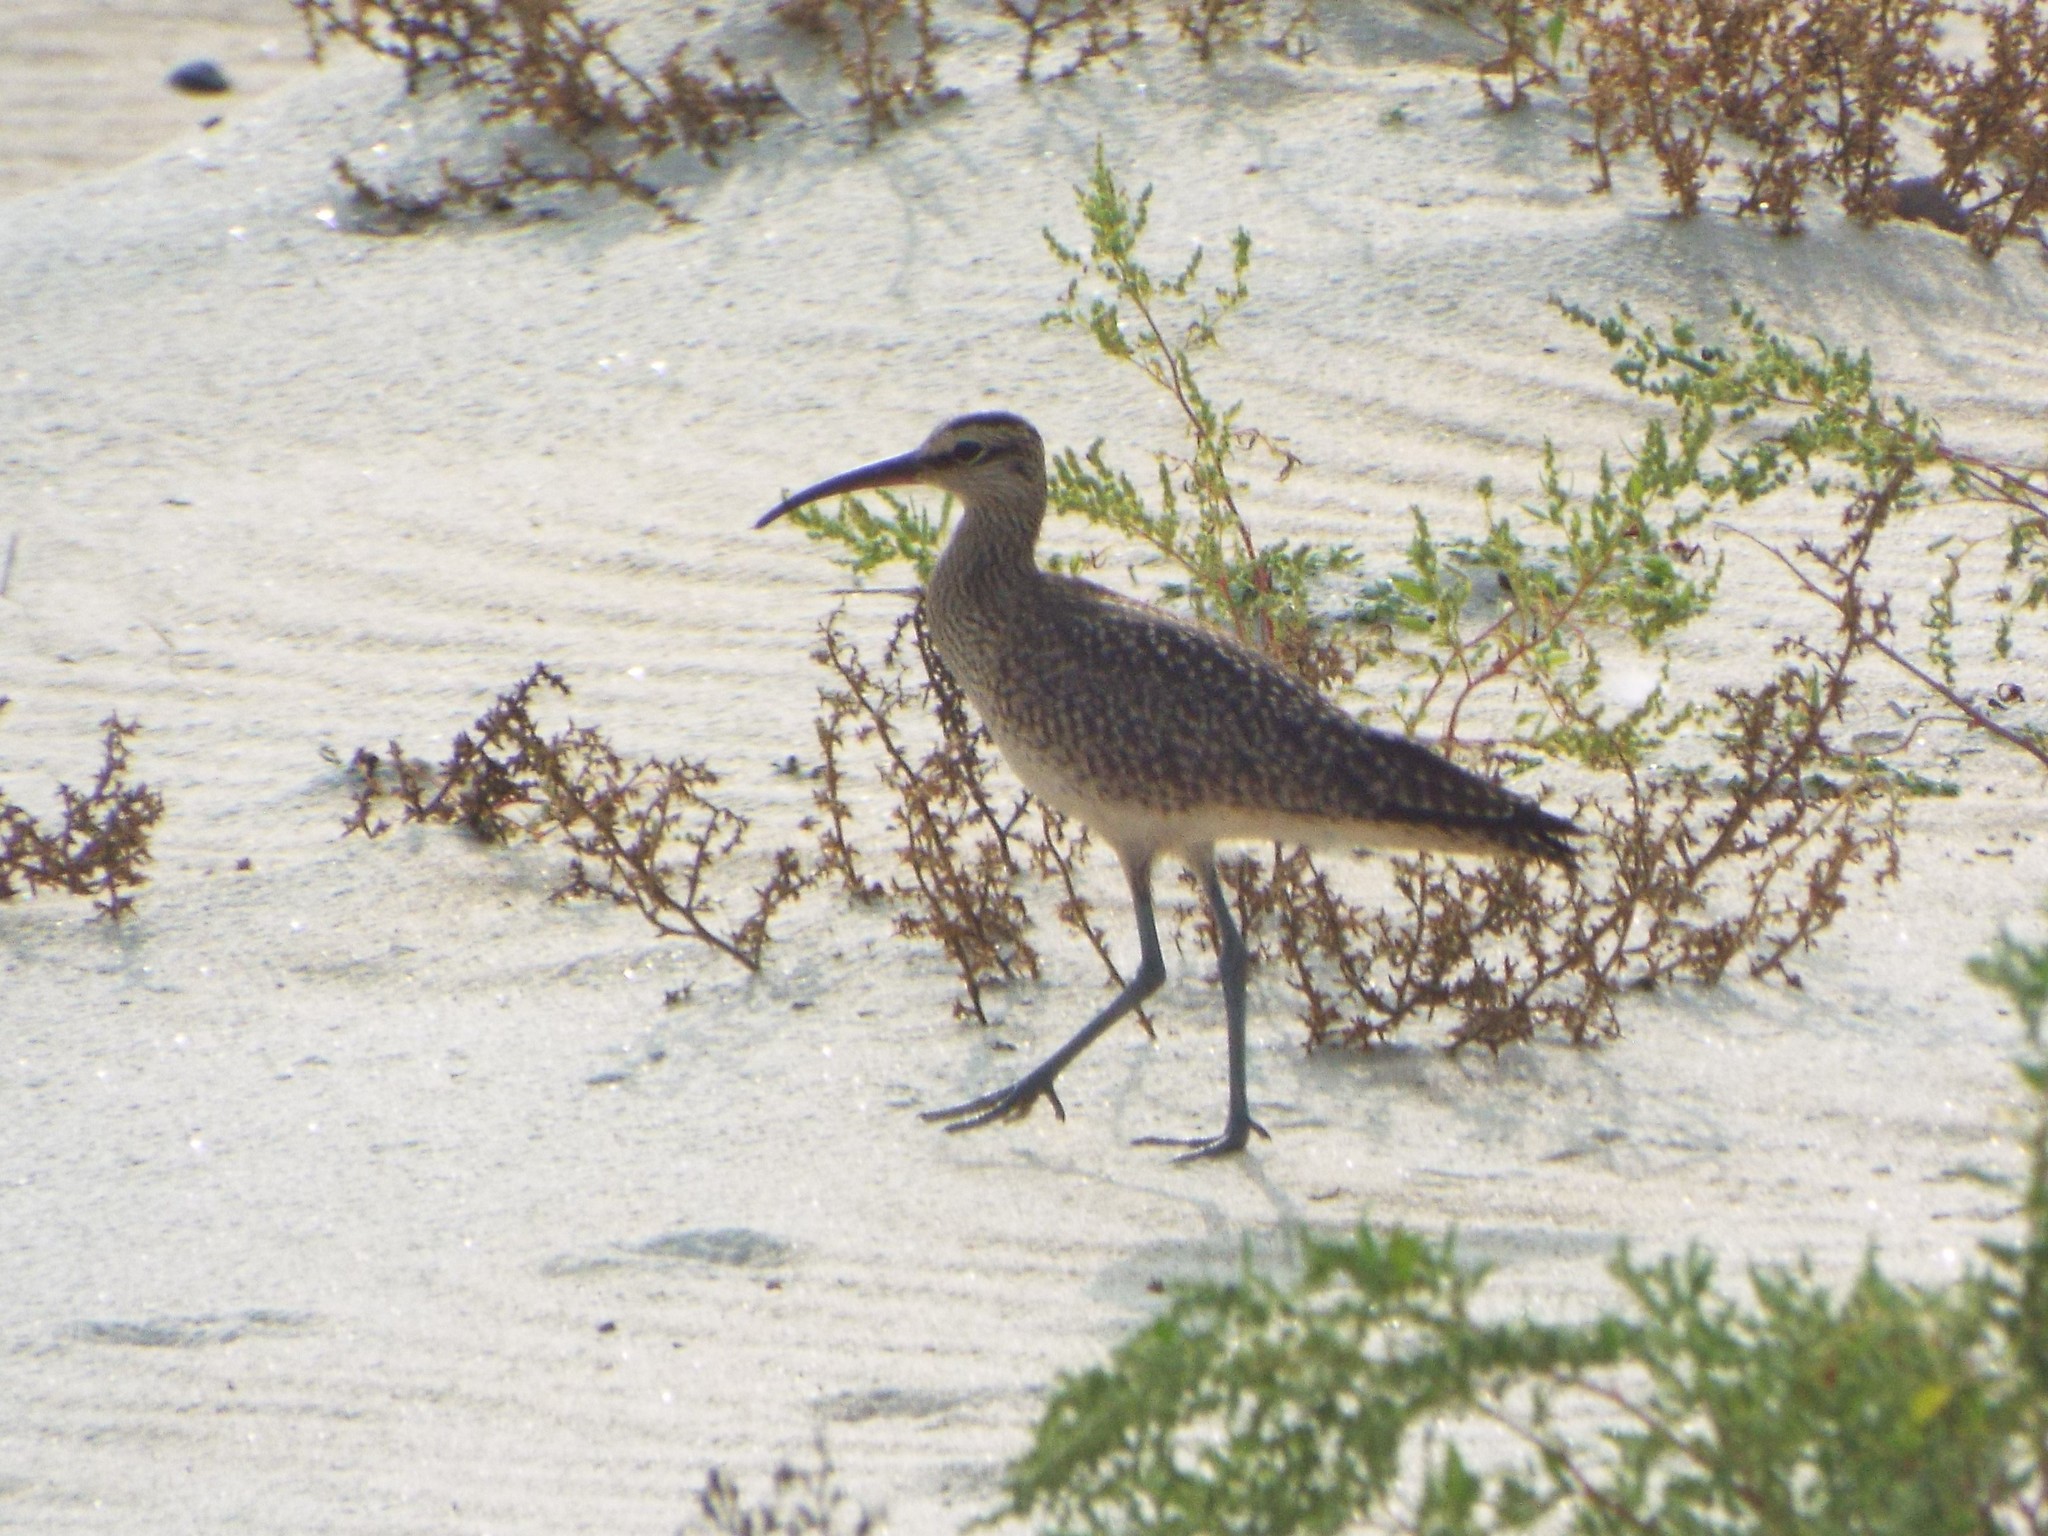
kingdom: Animalia
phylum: Chordata
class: Aves
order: Charadriiformes
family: Scolopacidae
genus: Numenius
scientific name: Numenius phaeopus
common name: Whimbrel
